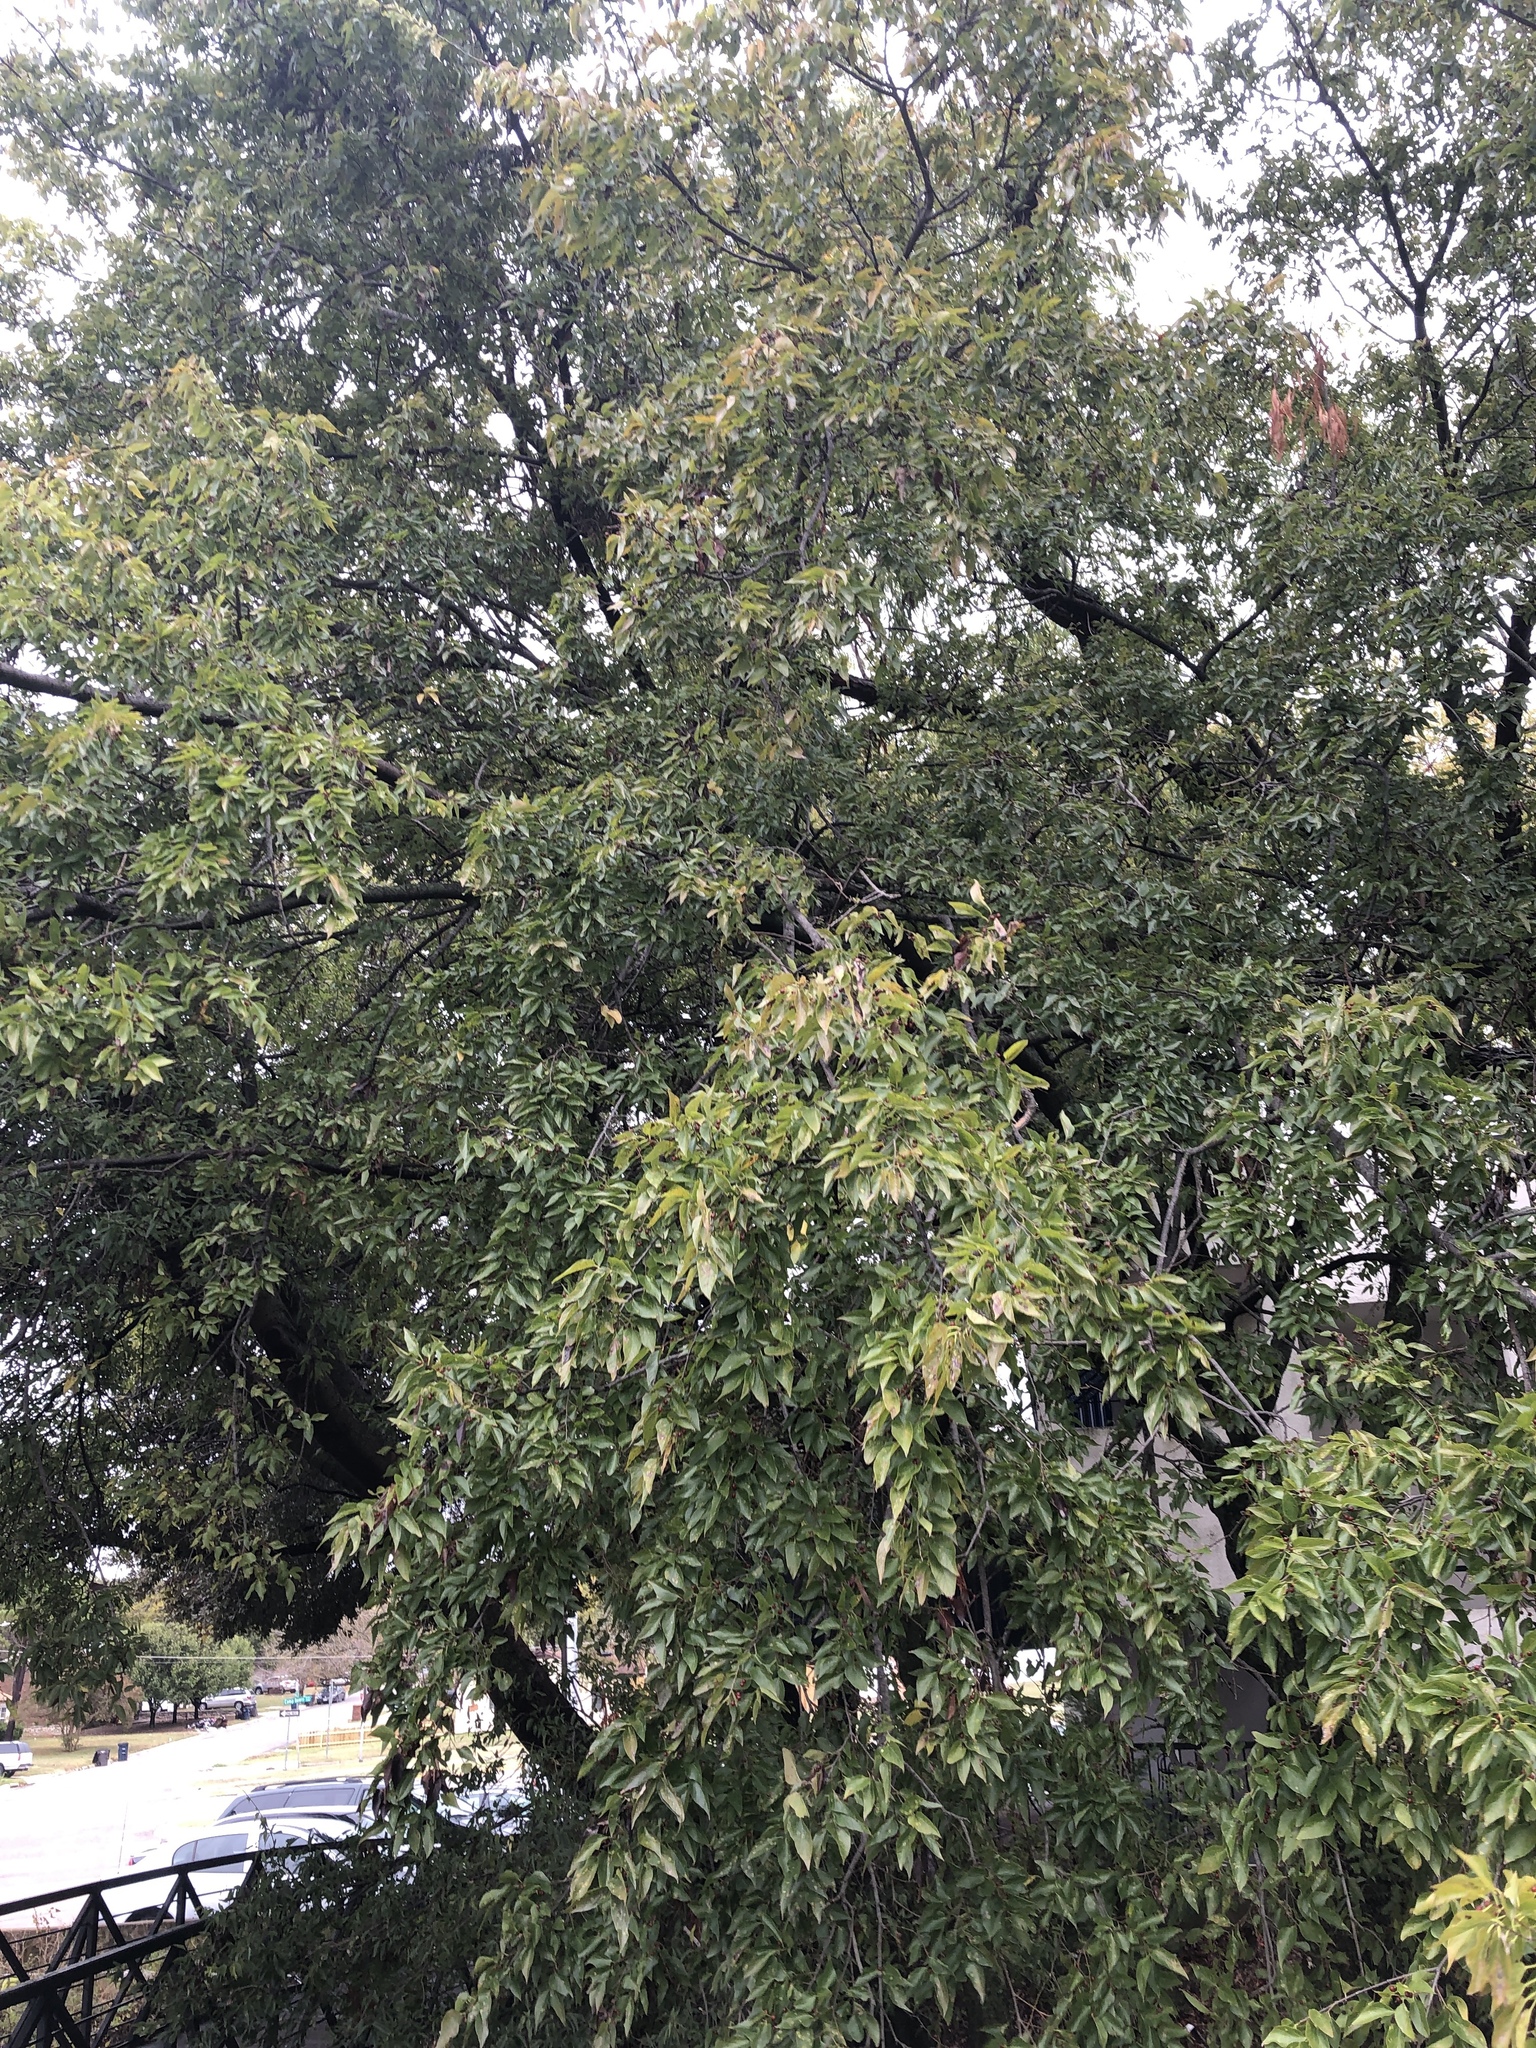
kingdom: Plantae
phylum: Tracheophyta
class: Magnoliopsida
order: Rosales
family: Cannabaceae
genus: Celtis
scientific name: Celtis laevigata
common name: Sugarberry
